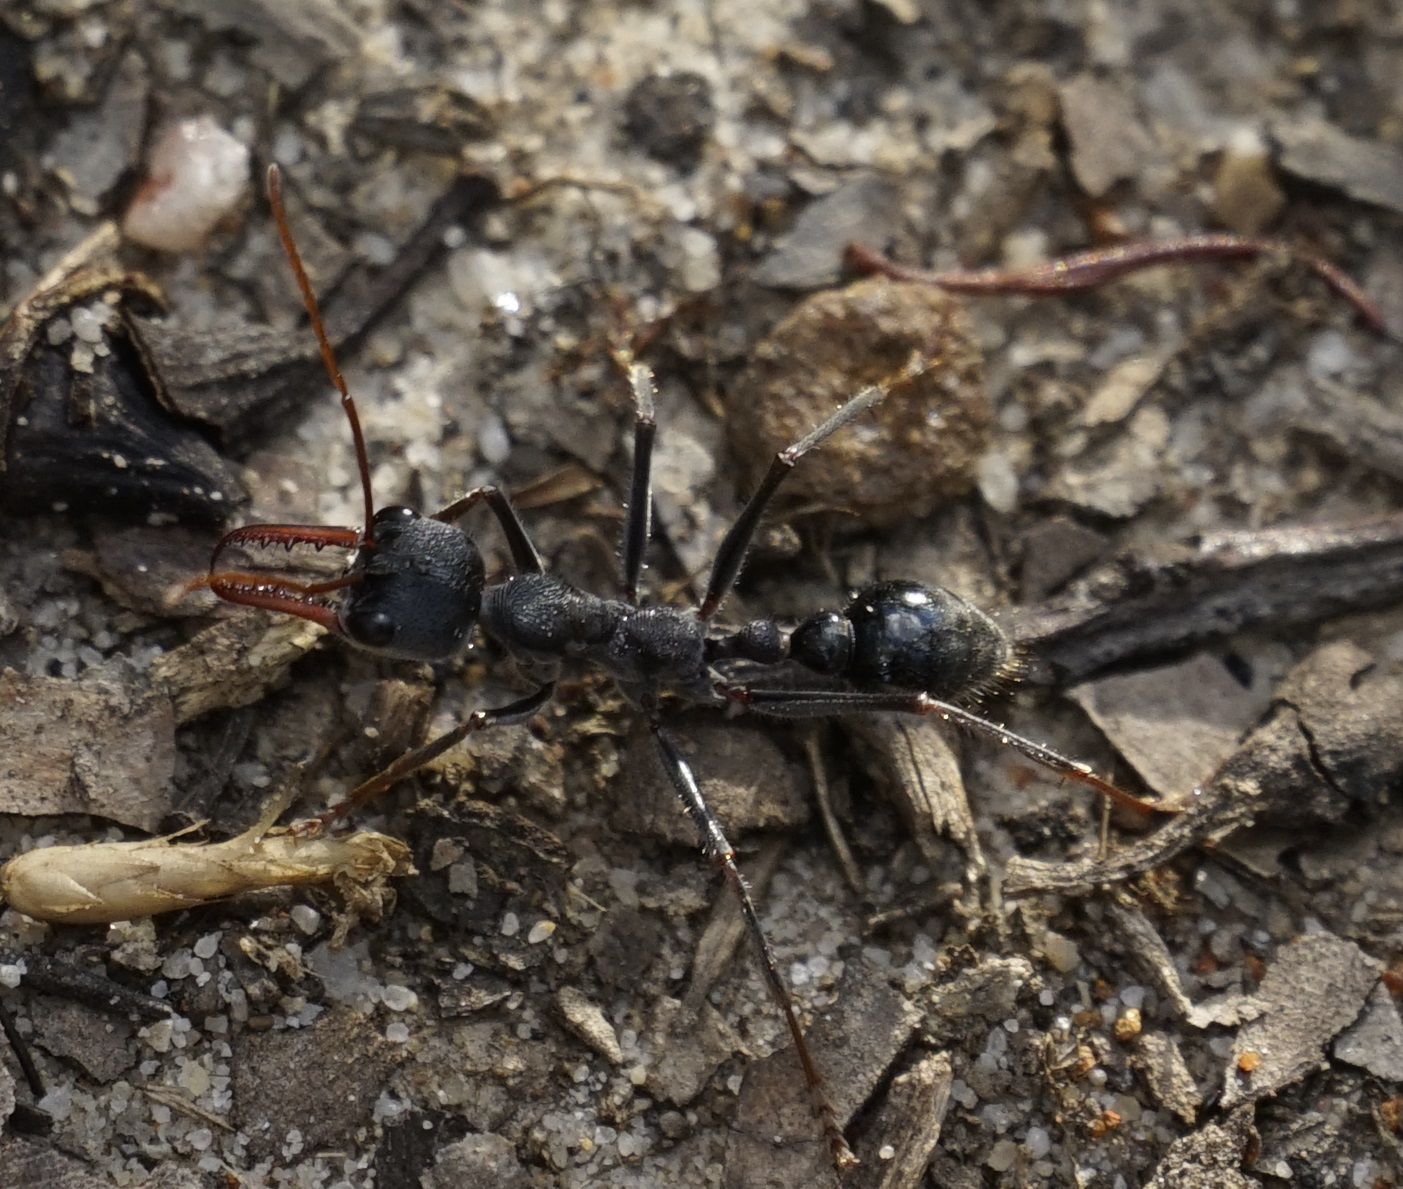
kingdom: Animalia
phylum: Arthropoda
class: Insecta
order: Hymenoptera
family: Formicidae
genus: Myrmecia
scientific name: Myrmecia simillima
